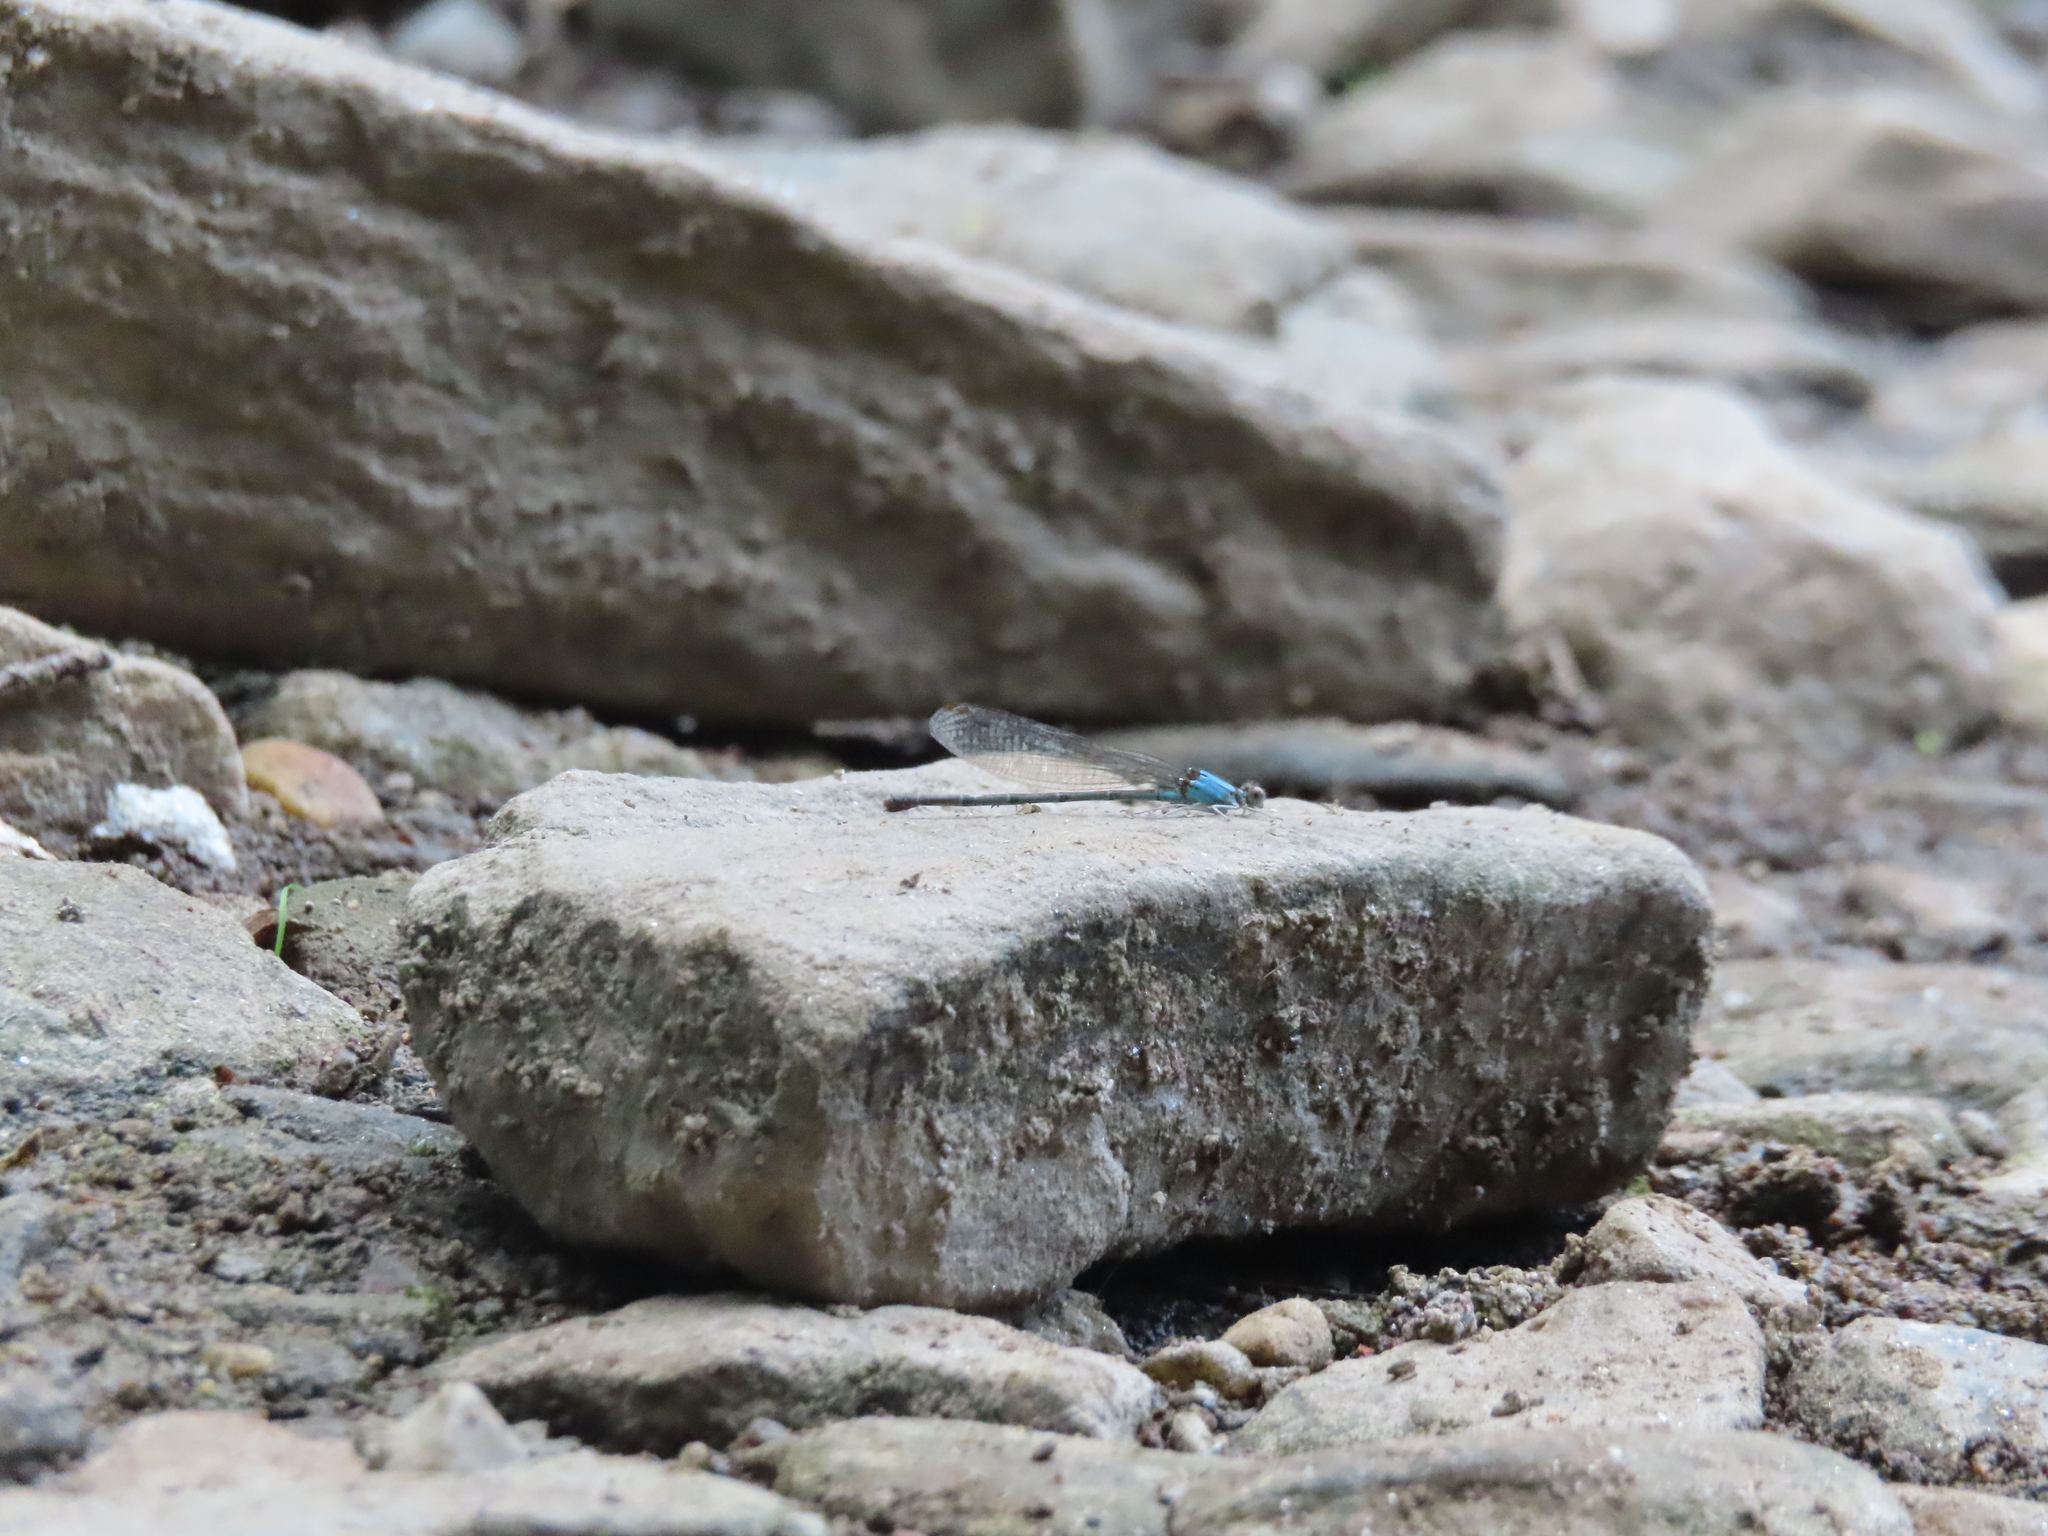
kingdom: Animalia
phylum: Arthropoda
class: Insecta
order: Odonata
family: Coenagrionidae
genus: Argia
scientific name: Argia apicalis
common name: Blue-fronted dancer
